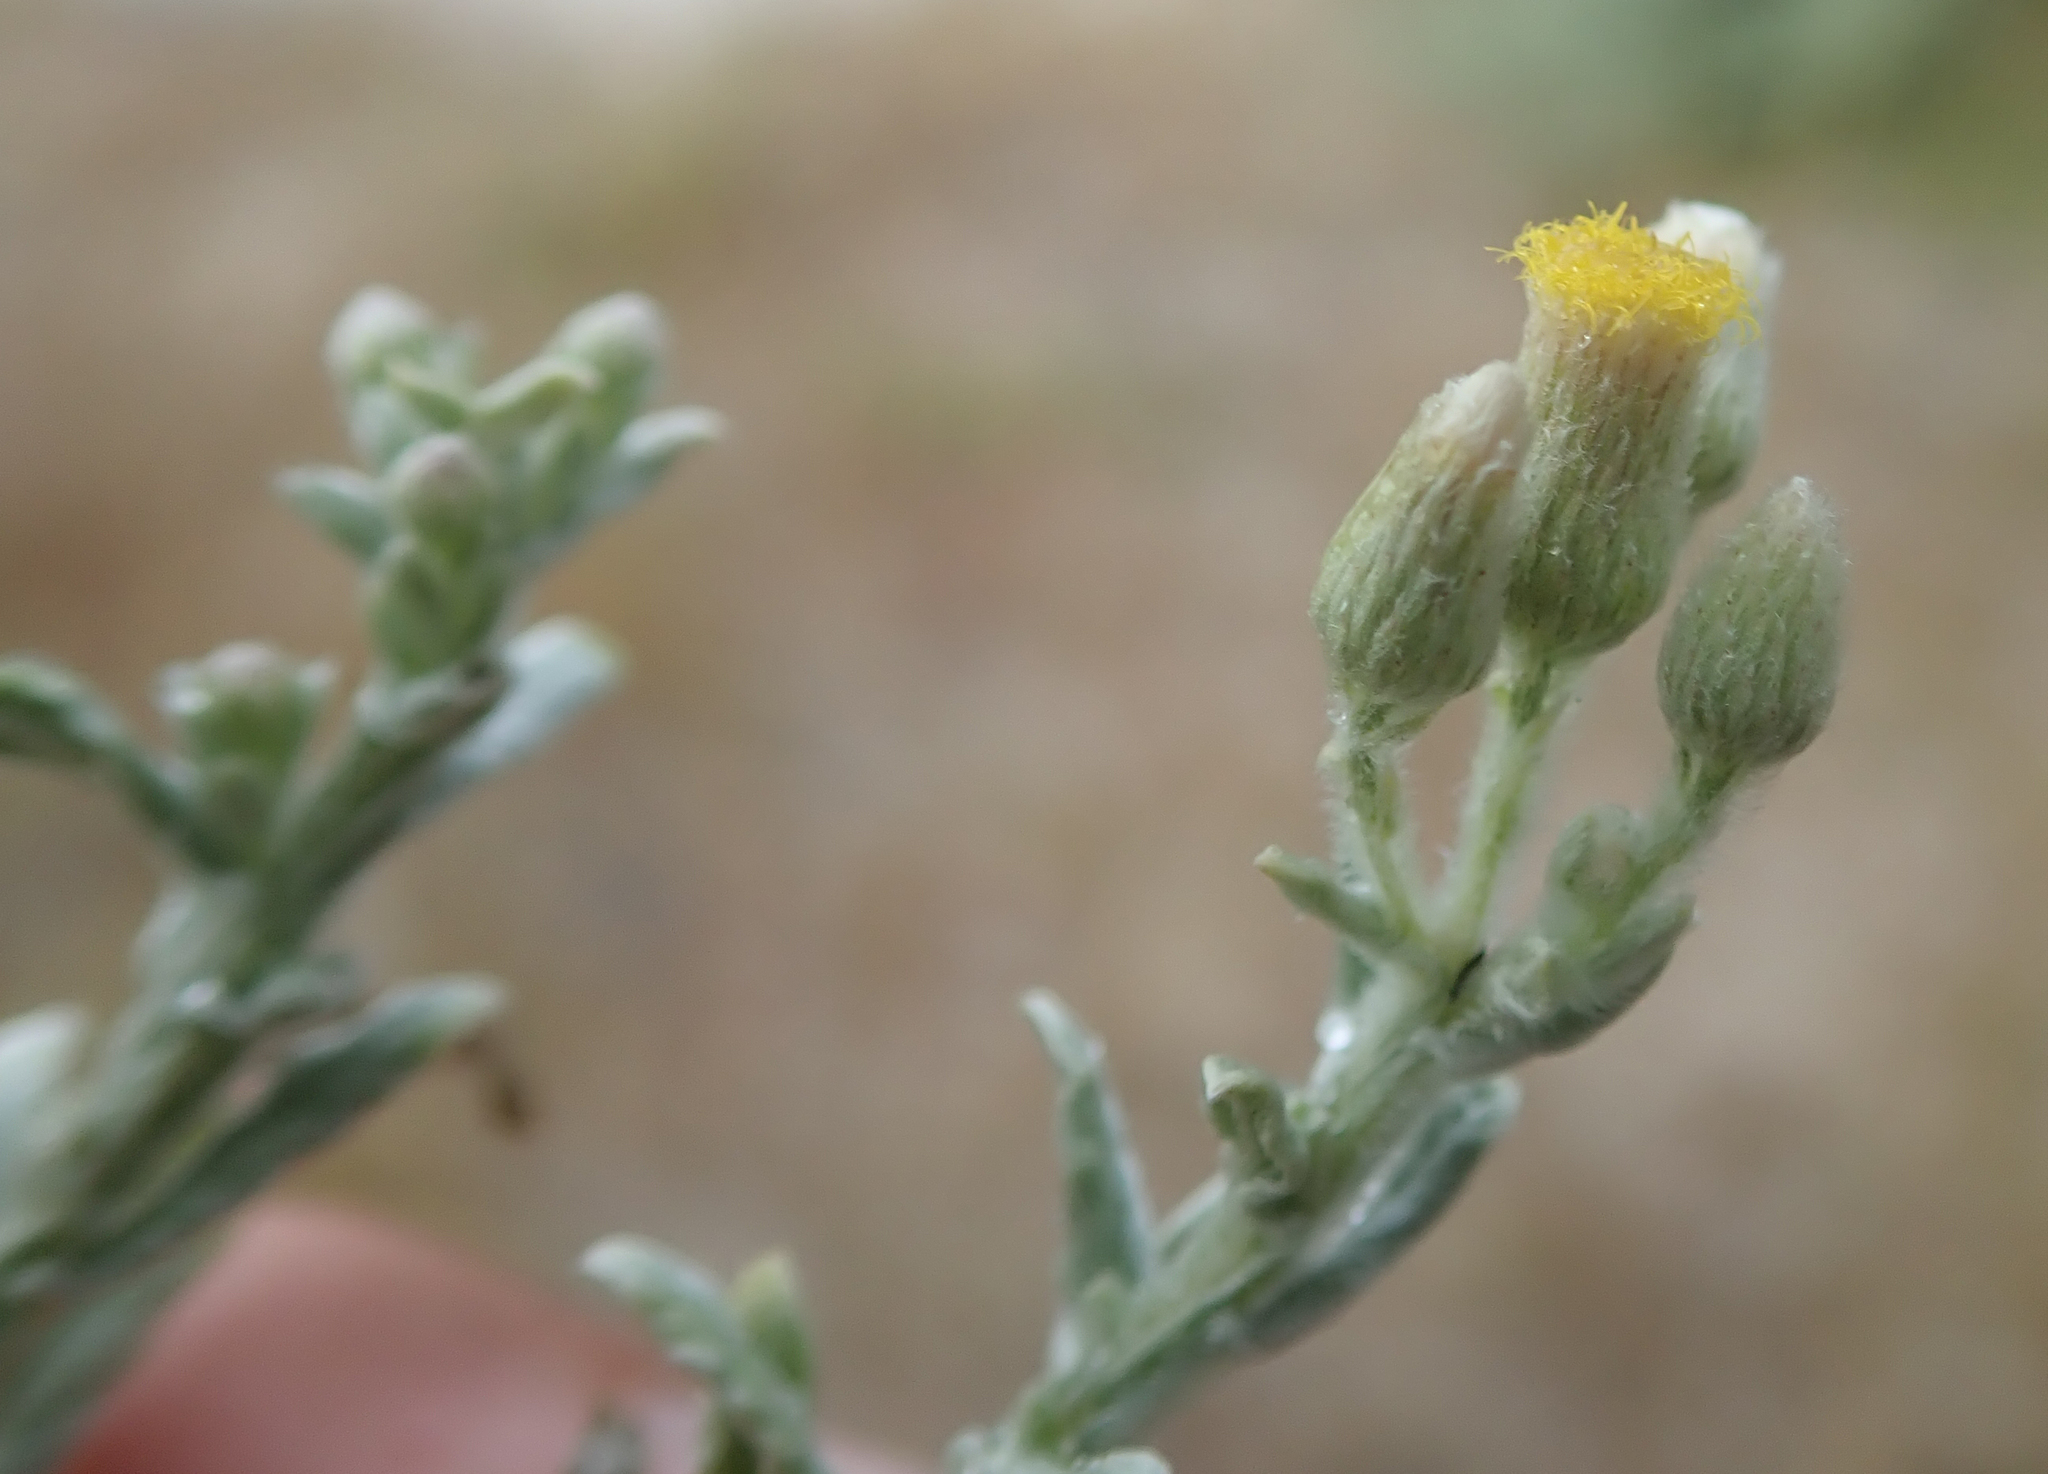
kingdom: Plantae
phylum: Tracheophyta
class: Magnoliopsida
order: Asterales
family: Asteraceae
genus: Galgera
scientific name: Galgera decurrens
